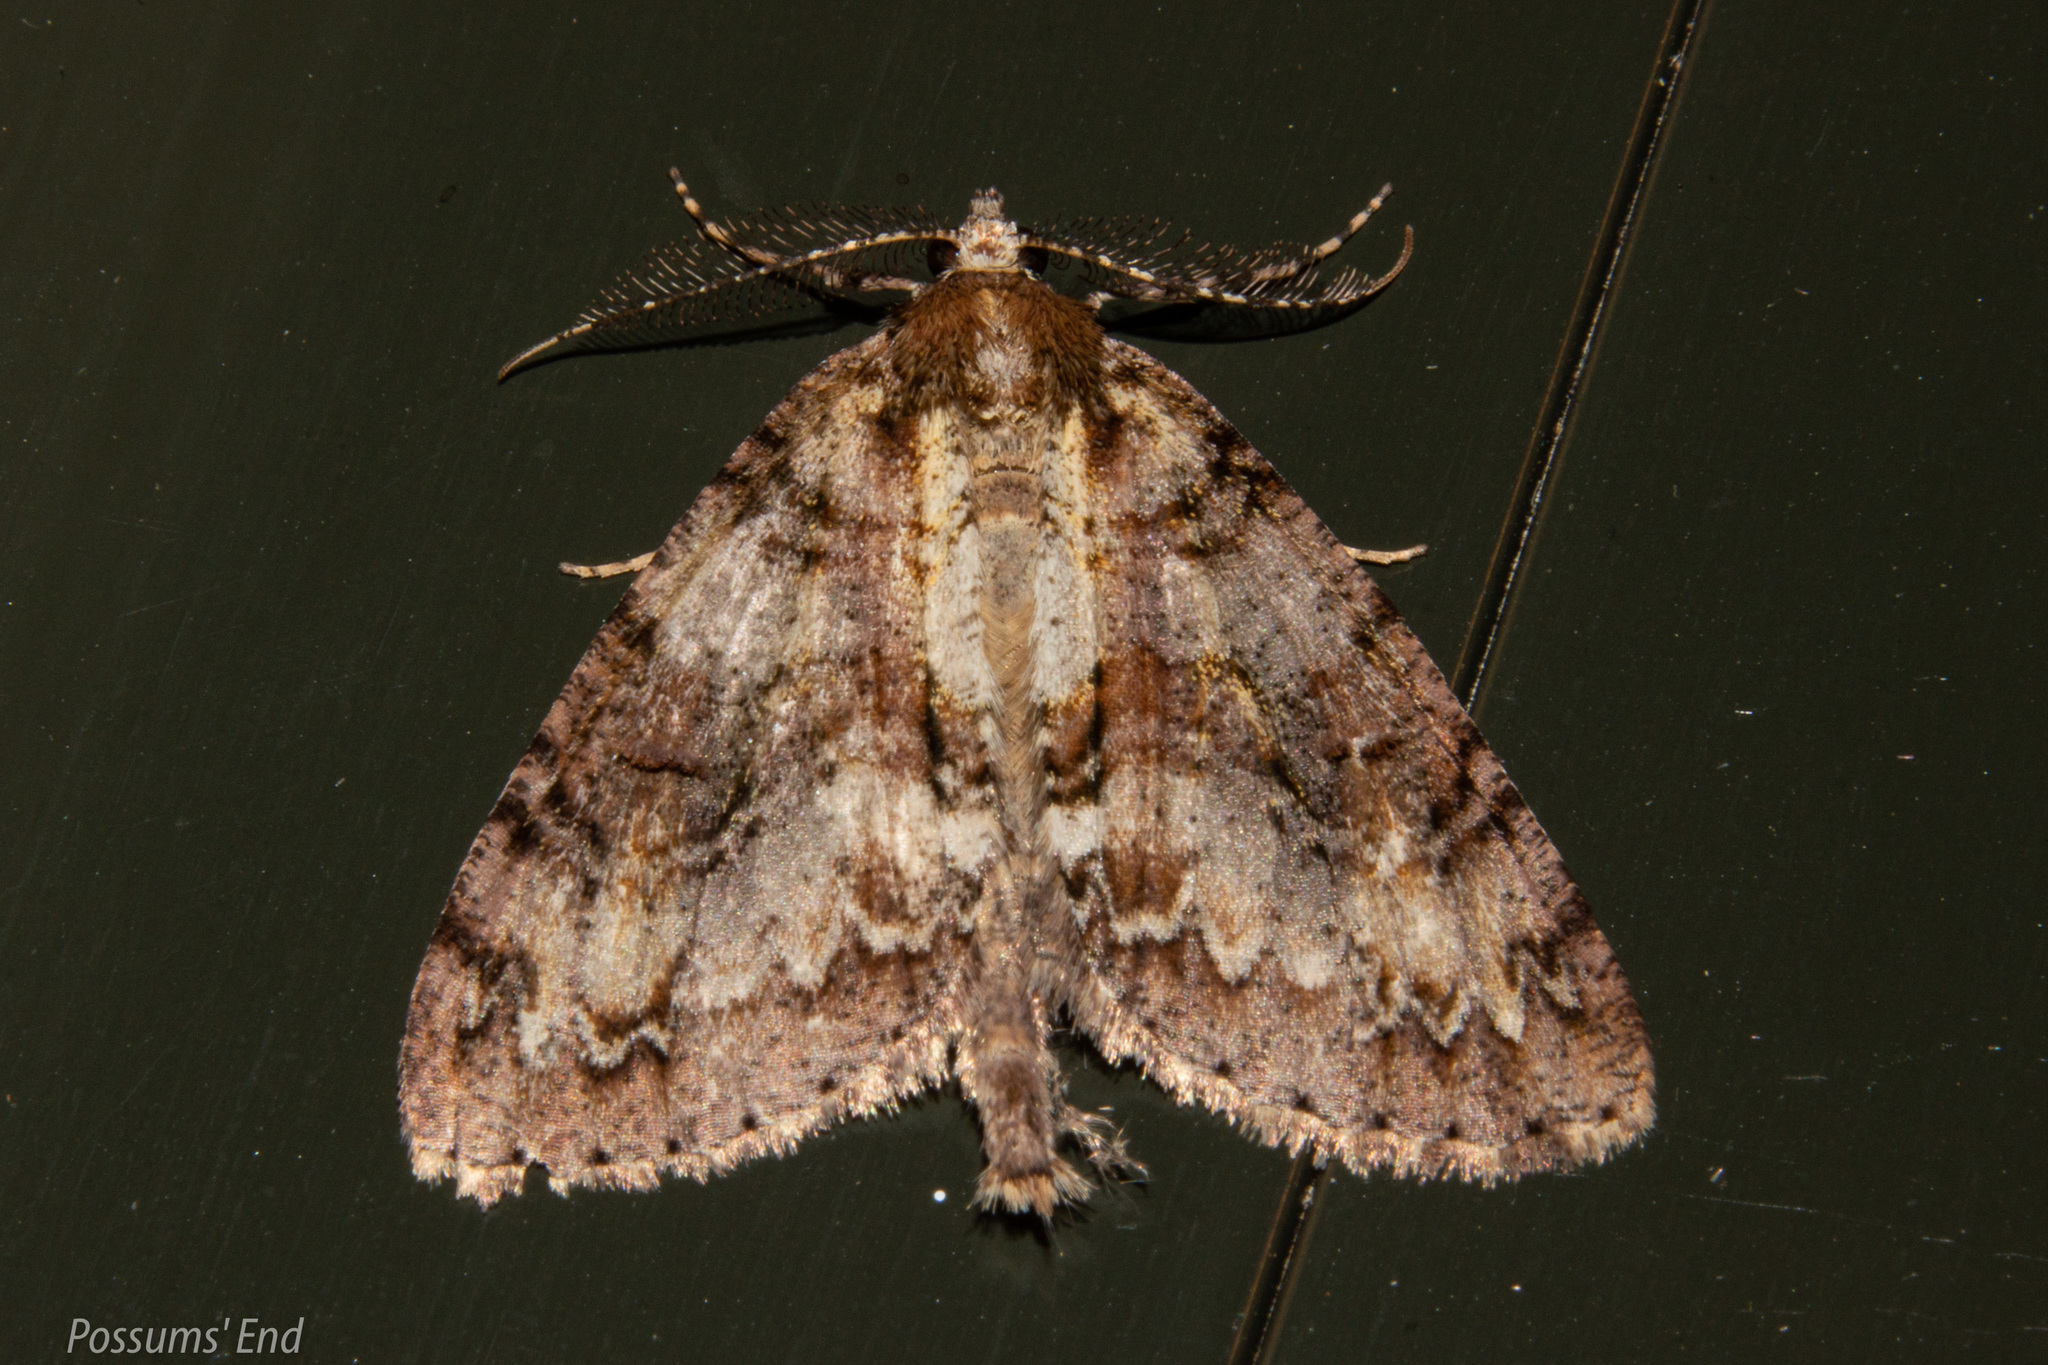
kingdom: Animalia
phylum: Arthropoda
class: Insecta
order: Lepidoptera
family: Geometridae
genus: Pseudocoremia
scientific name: Pseudocoremia suavis
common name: Common forest looper
